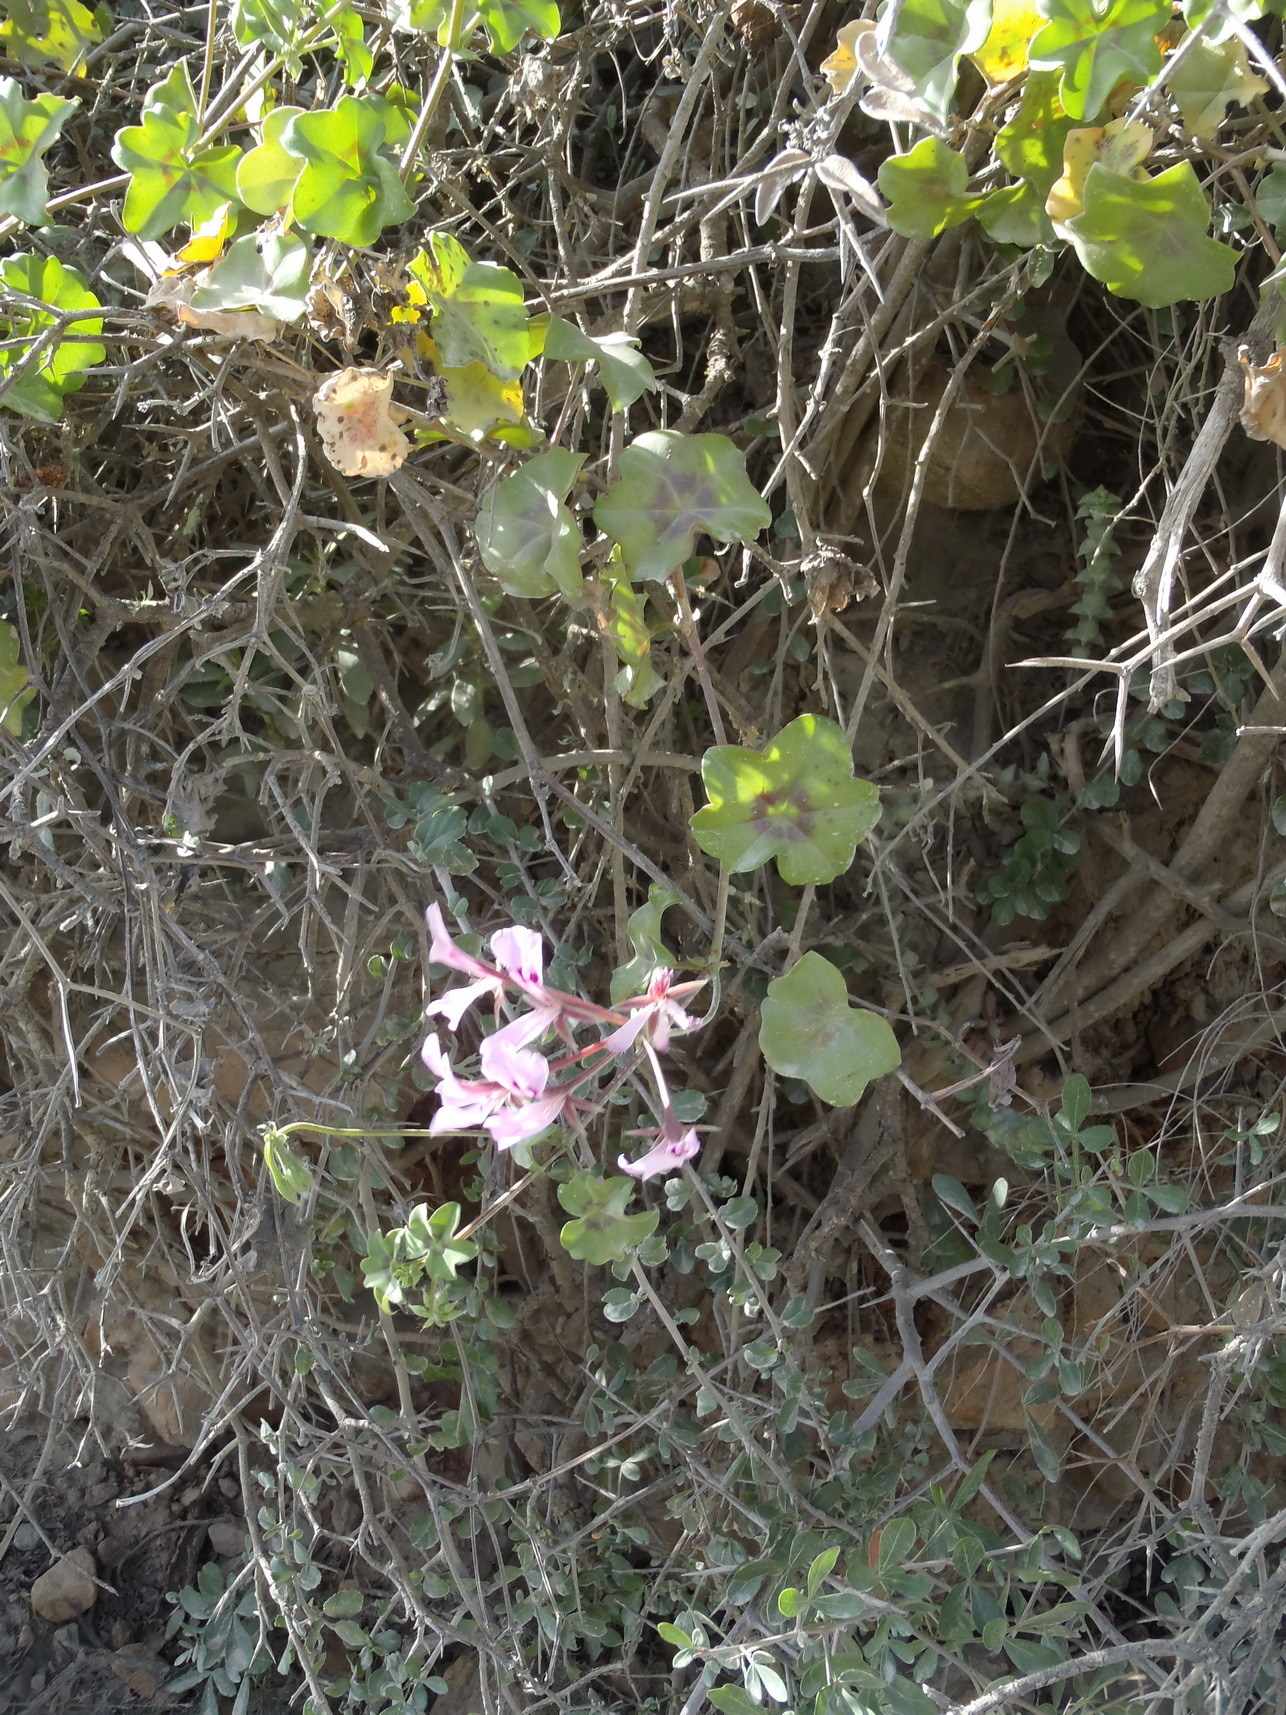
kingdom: Plantae
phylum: Tracheophyta
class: Magnoliopsida
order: Geraniales
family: Geraniaceae
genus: Pelargonium
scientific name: Pelargonium peltatum
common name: Ivyleaf geranium
